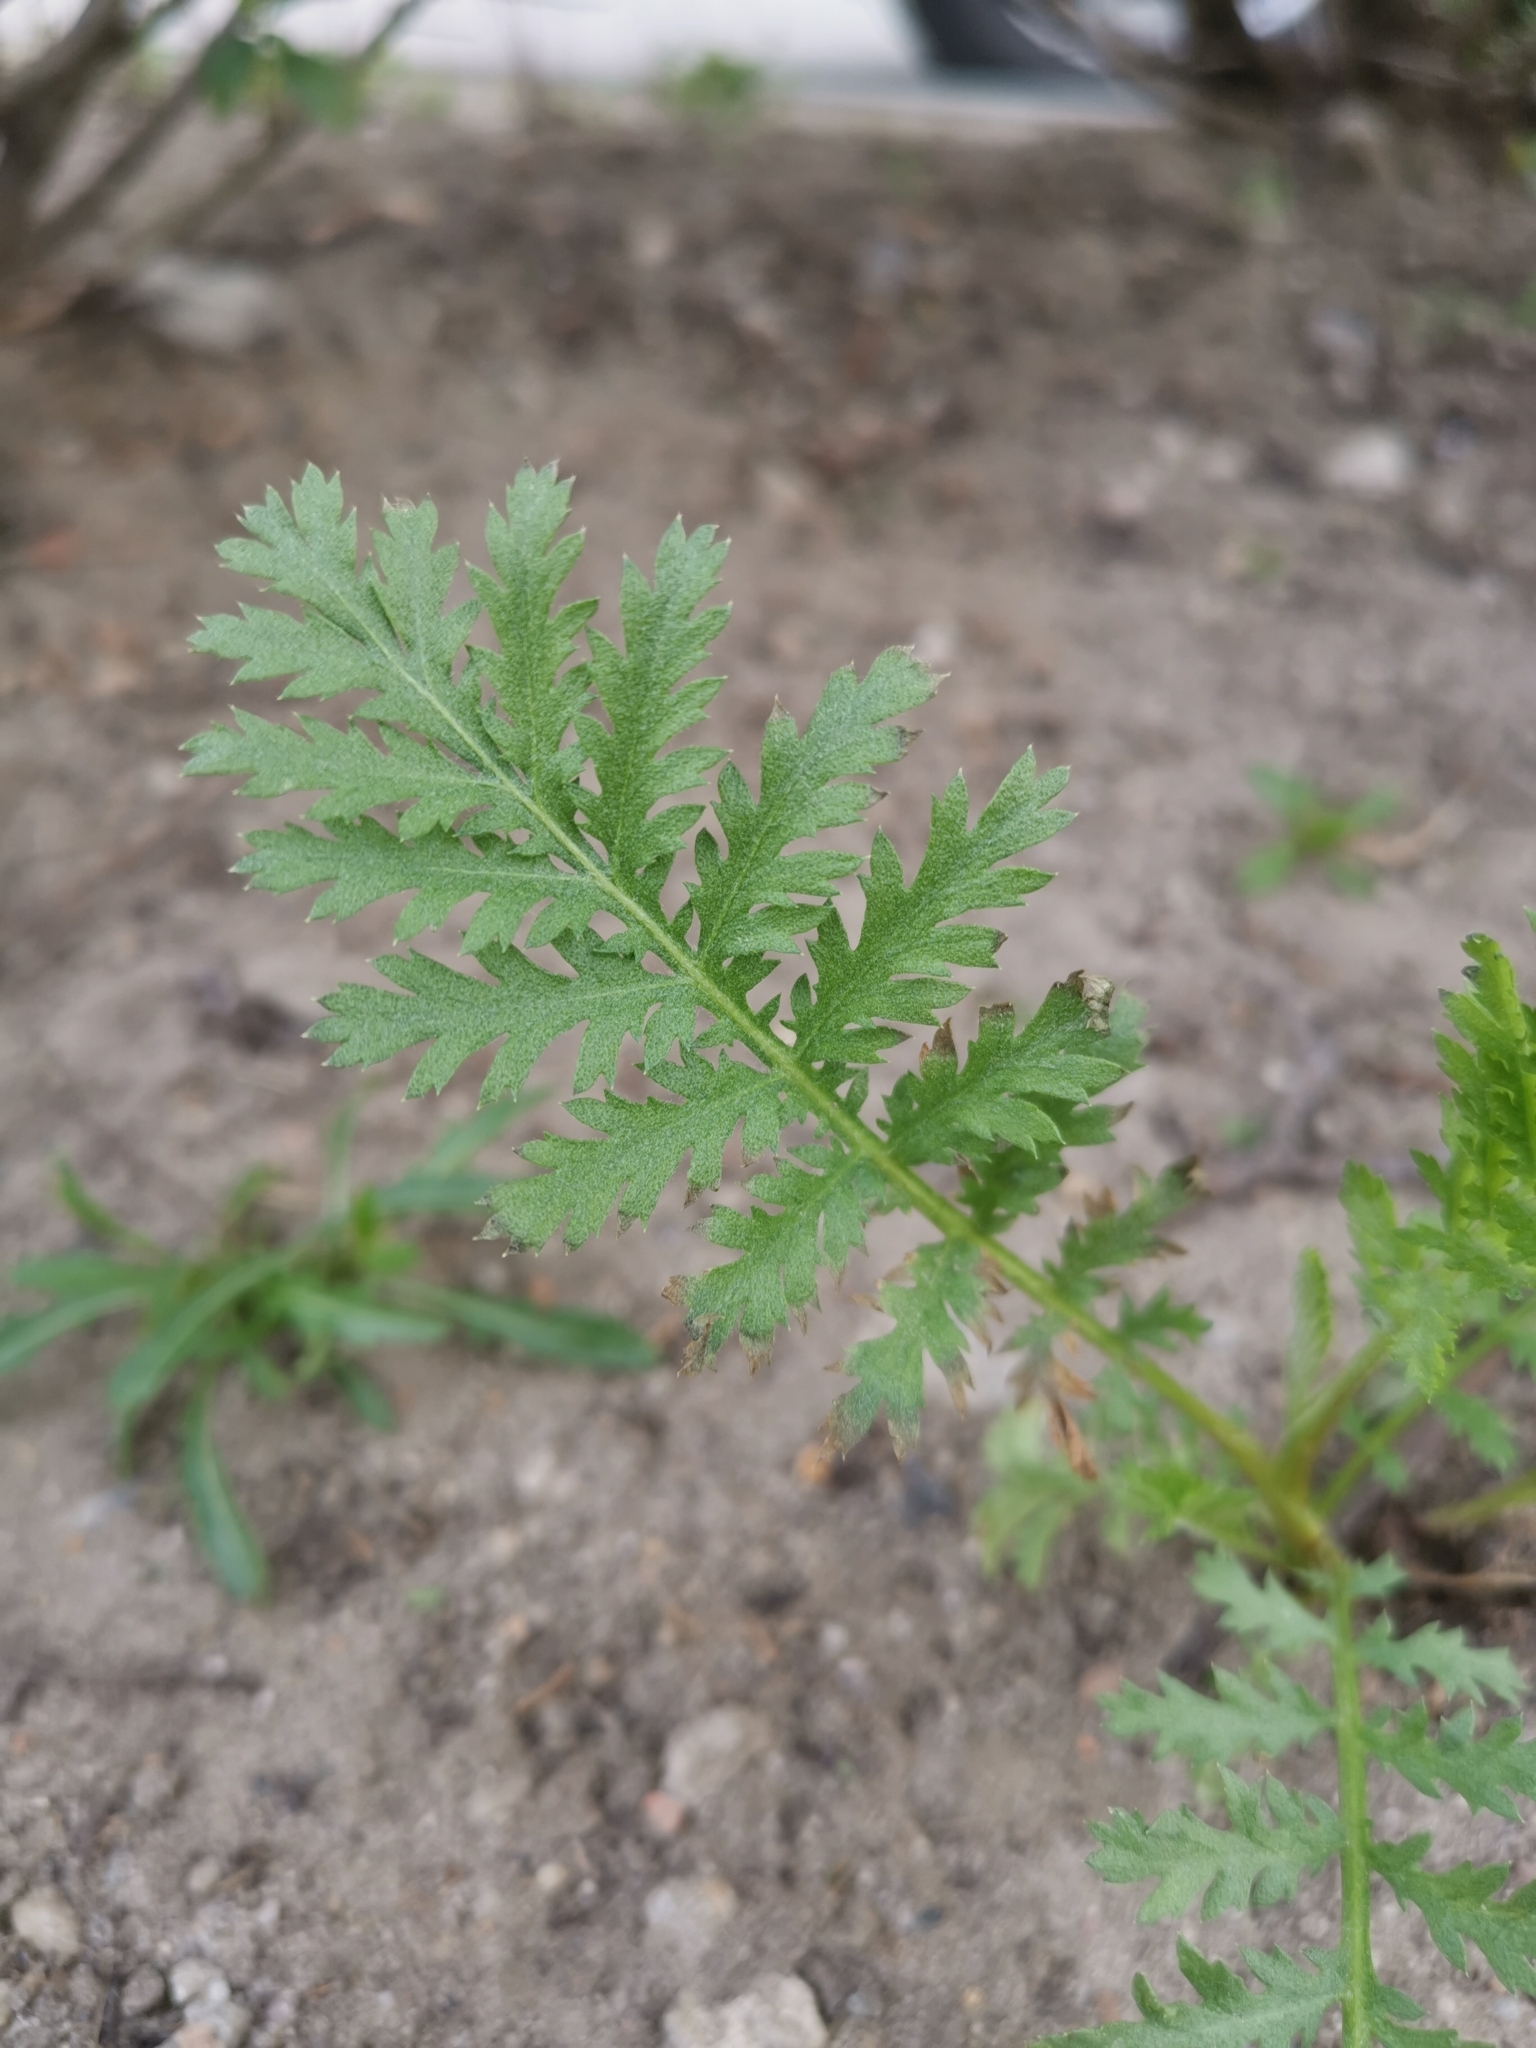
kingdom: Plantae
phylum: Tracheophyta
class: Magnoliopsida
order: Asterales
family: Asteraceae
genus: Tanacetum
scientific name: Tanacetum vulgare
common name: Common tansy
